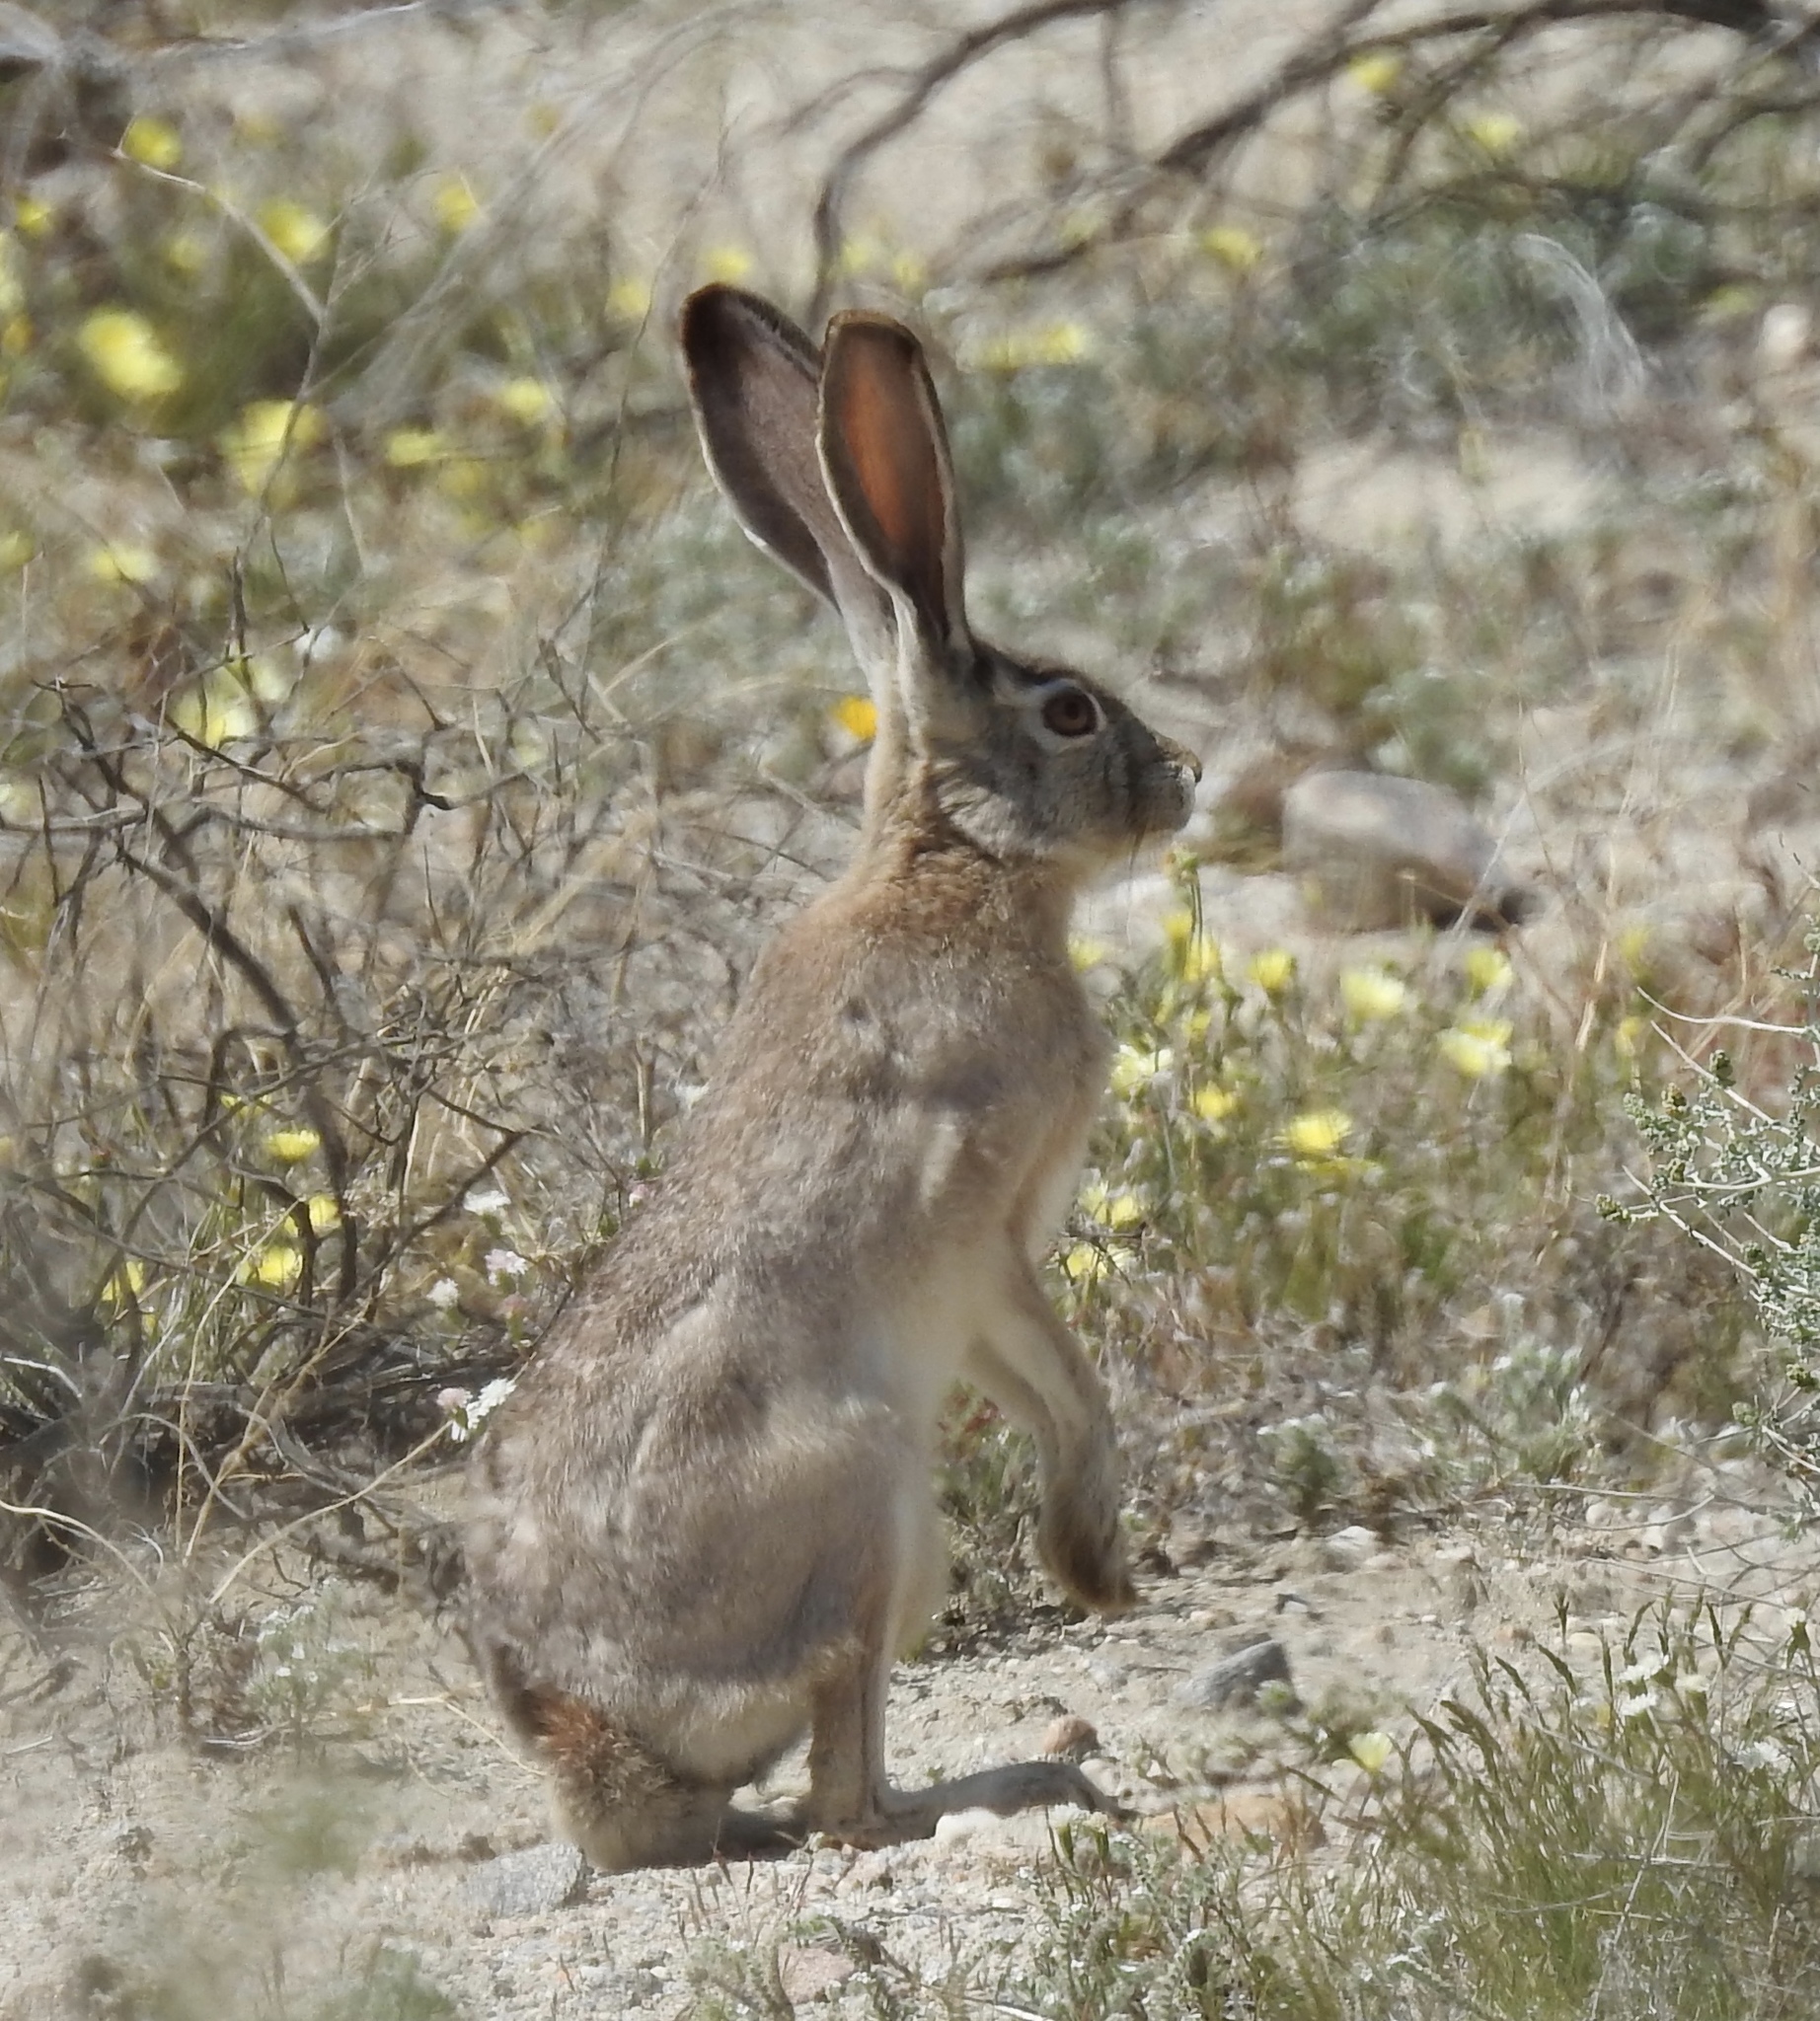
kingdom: Animalia
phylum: Chordata
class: Mammalia
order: Lagomorpha
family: Leporidae
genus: Lepus
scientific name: Lepus californicus
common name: Black-tailed jackrabbit
